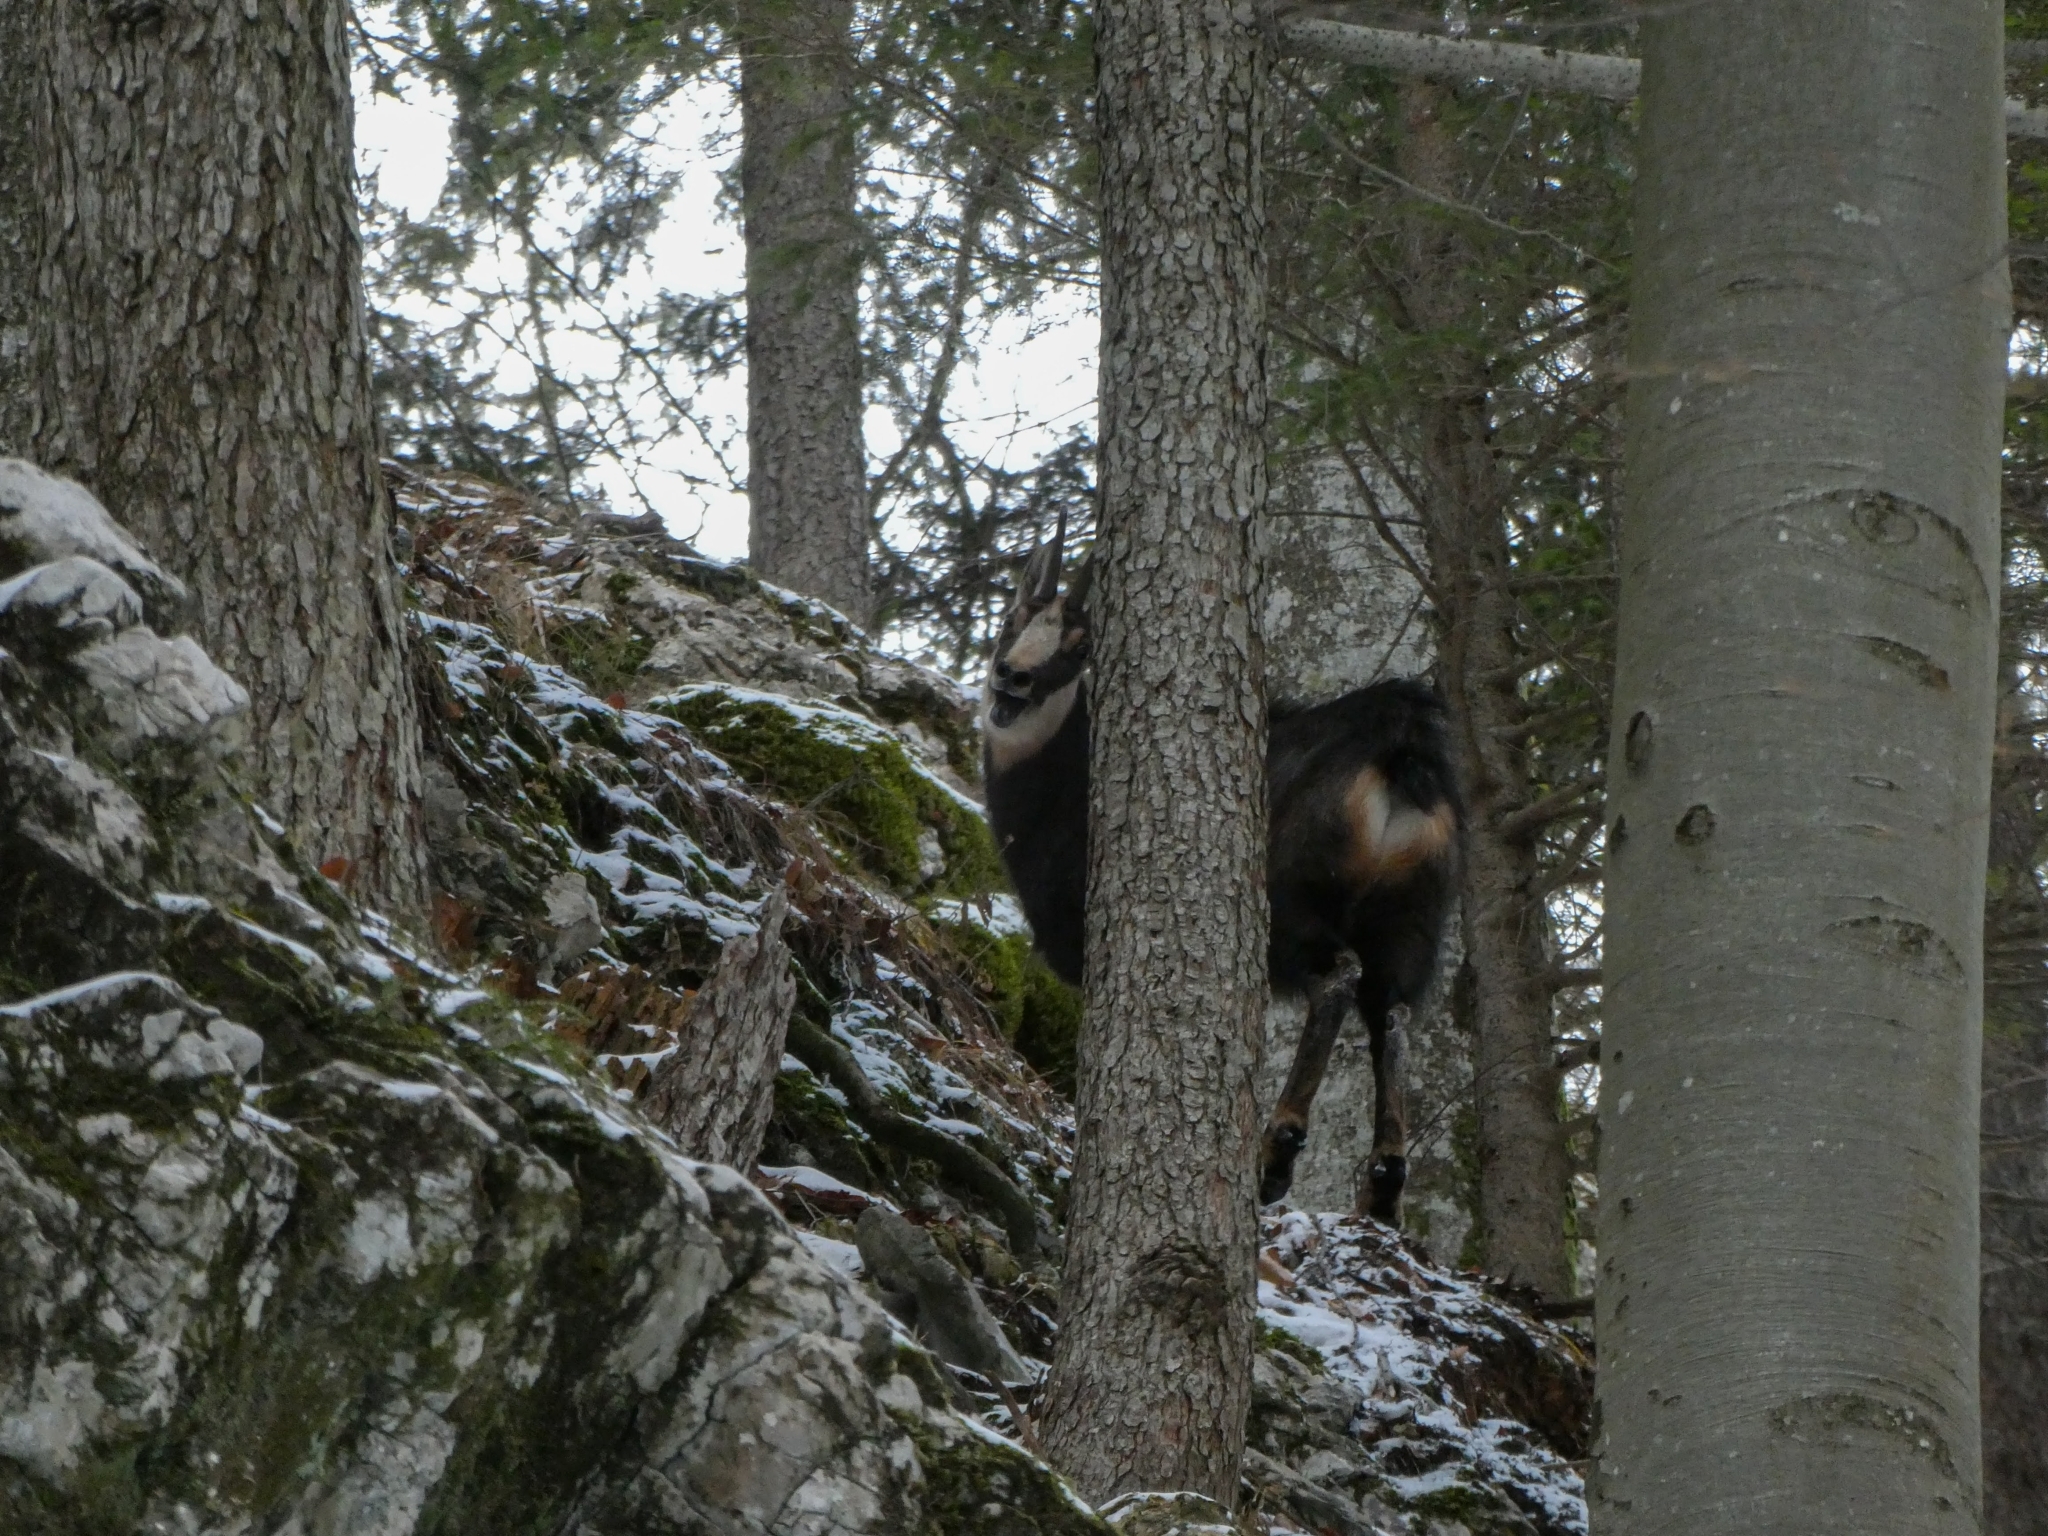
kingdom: Animalia
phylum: Chordata
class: Mammalia
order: Artiodactyla
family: Bovidae
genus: Rupicapra
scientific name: Rupicapra rupicapra
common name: Chamois
